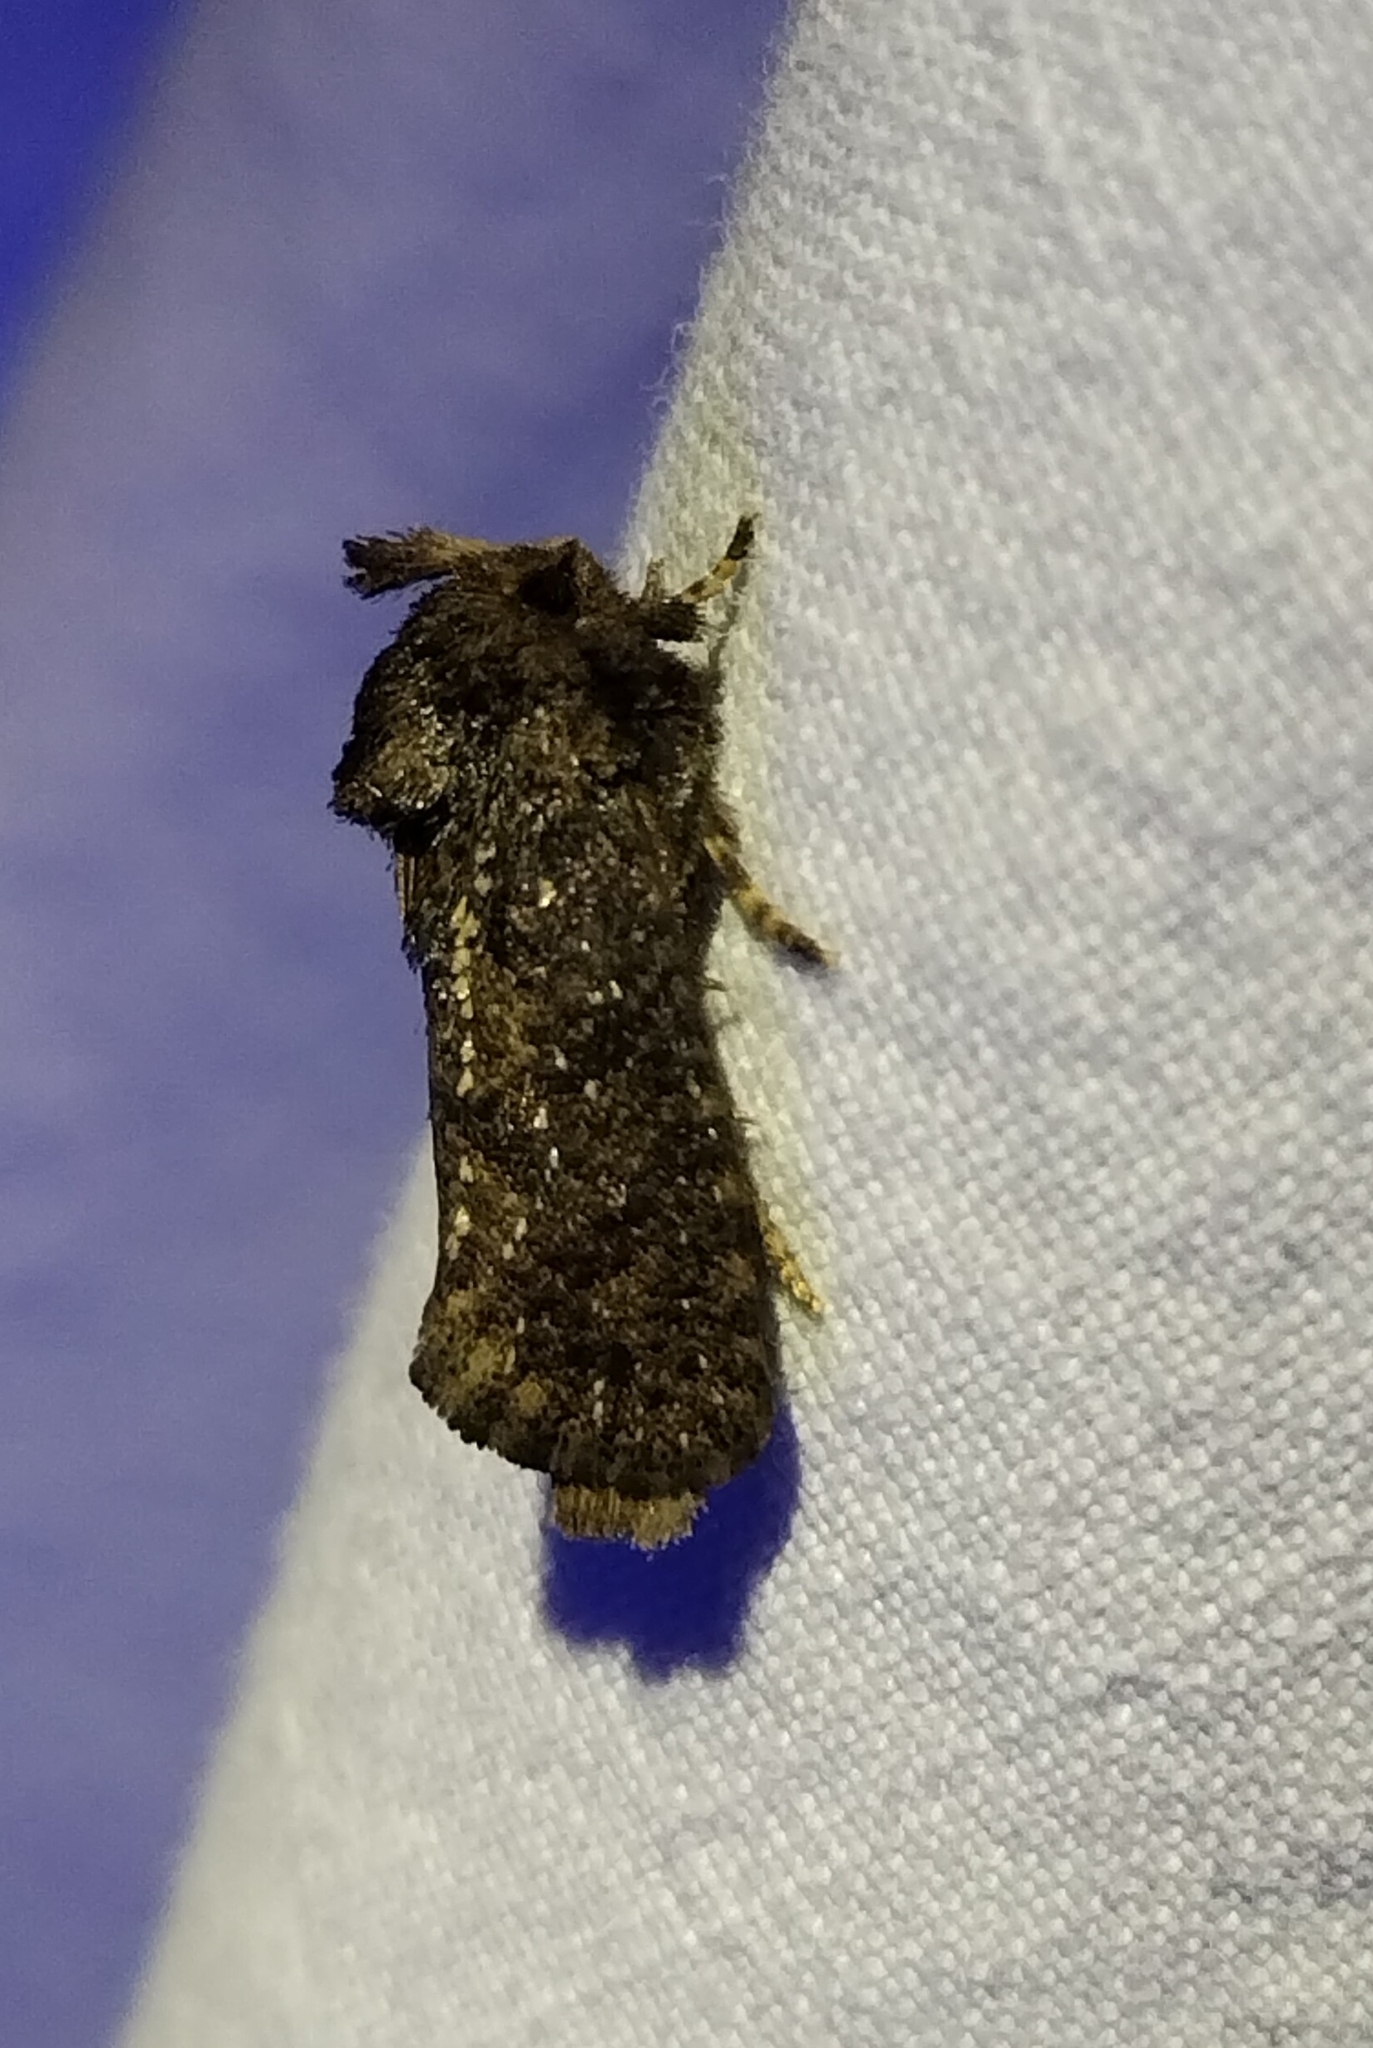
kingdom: Animalia
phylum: Arthropoda
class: Insecta
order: Lepidoptera
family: Tineidae
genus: Acrolophus
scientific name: Acrolophus arcanella
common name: Arcane grass tubeworm moth
